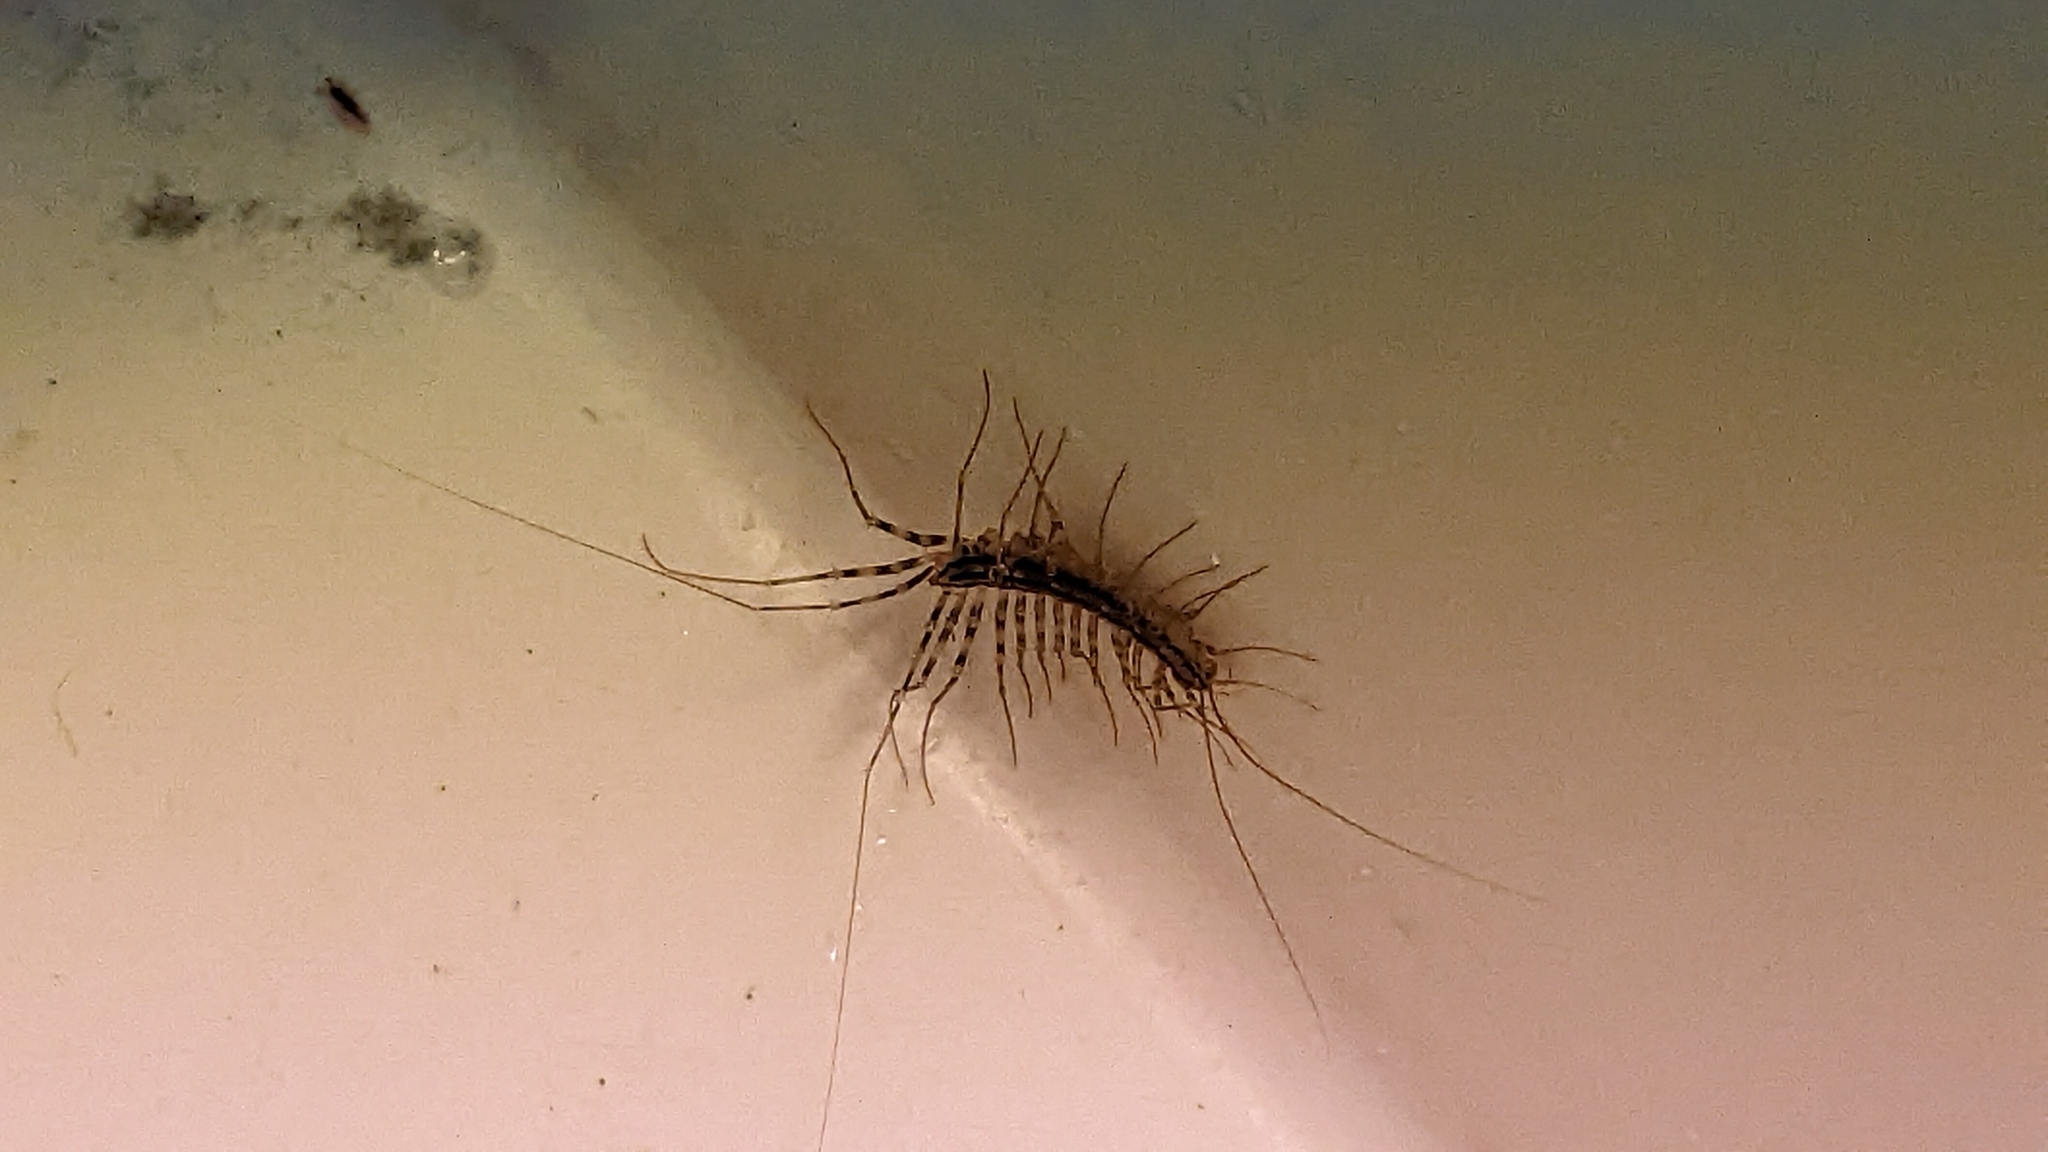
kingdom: Animalia
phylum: Arthropoda
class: Chilopoda
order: Scutigeromorpha
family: Scutigeridae
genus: Scutigera
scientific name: Scutigera coleoptrata
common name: House centipede
